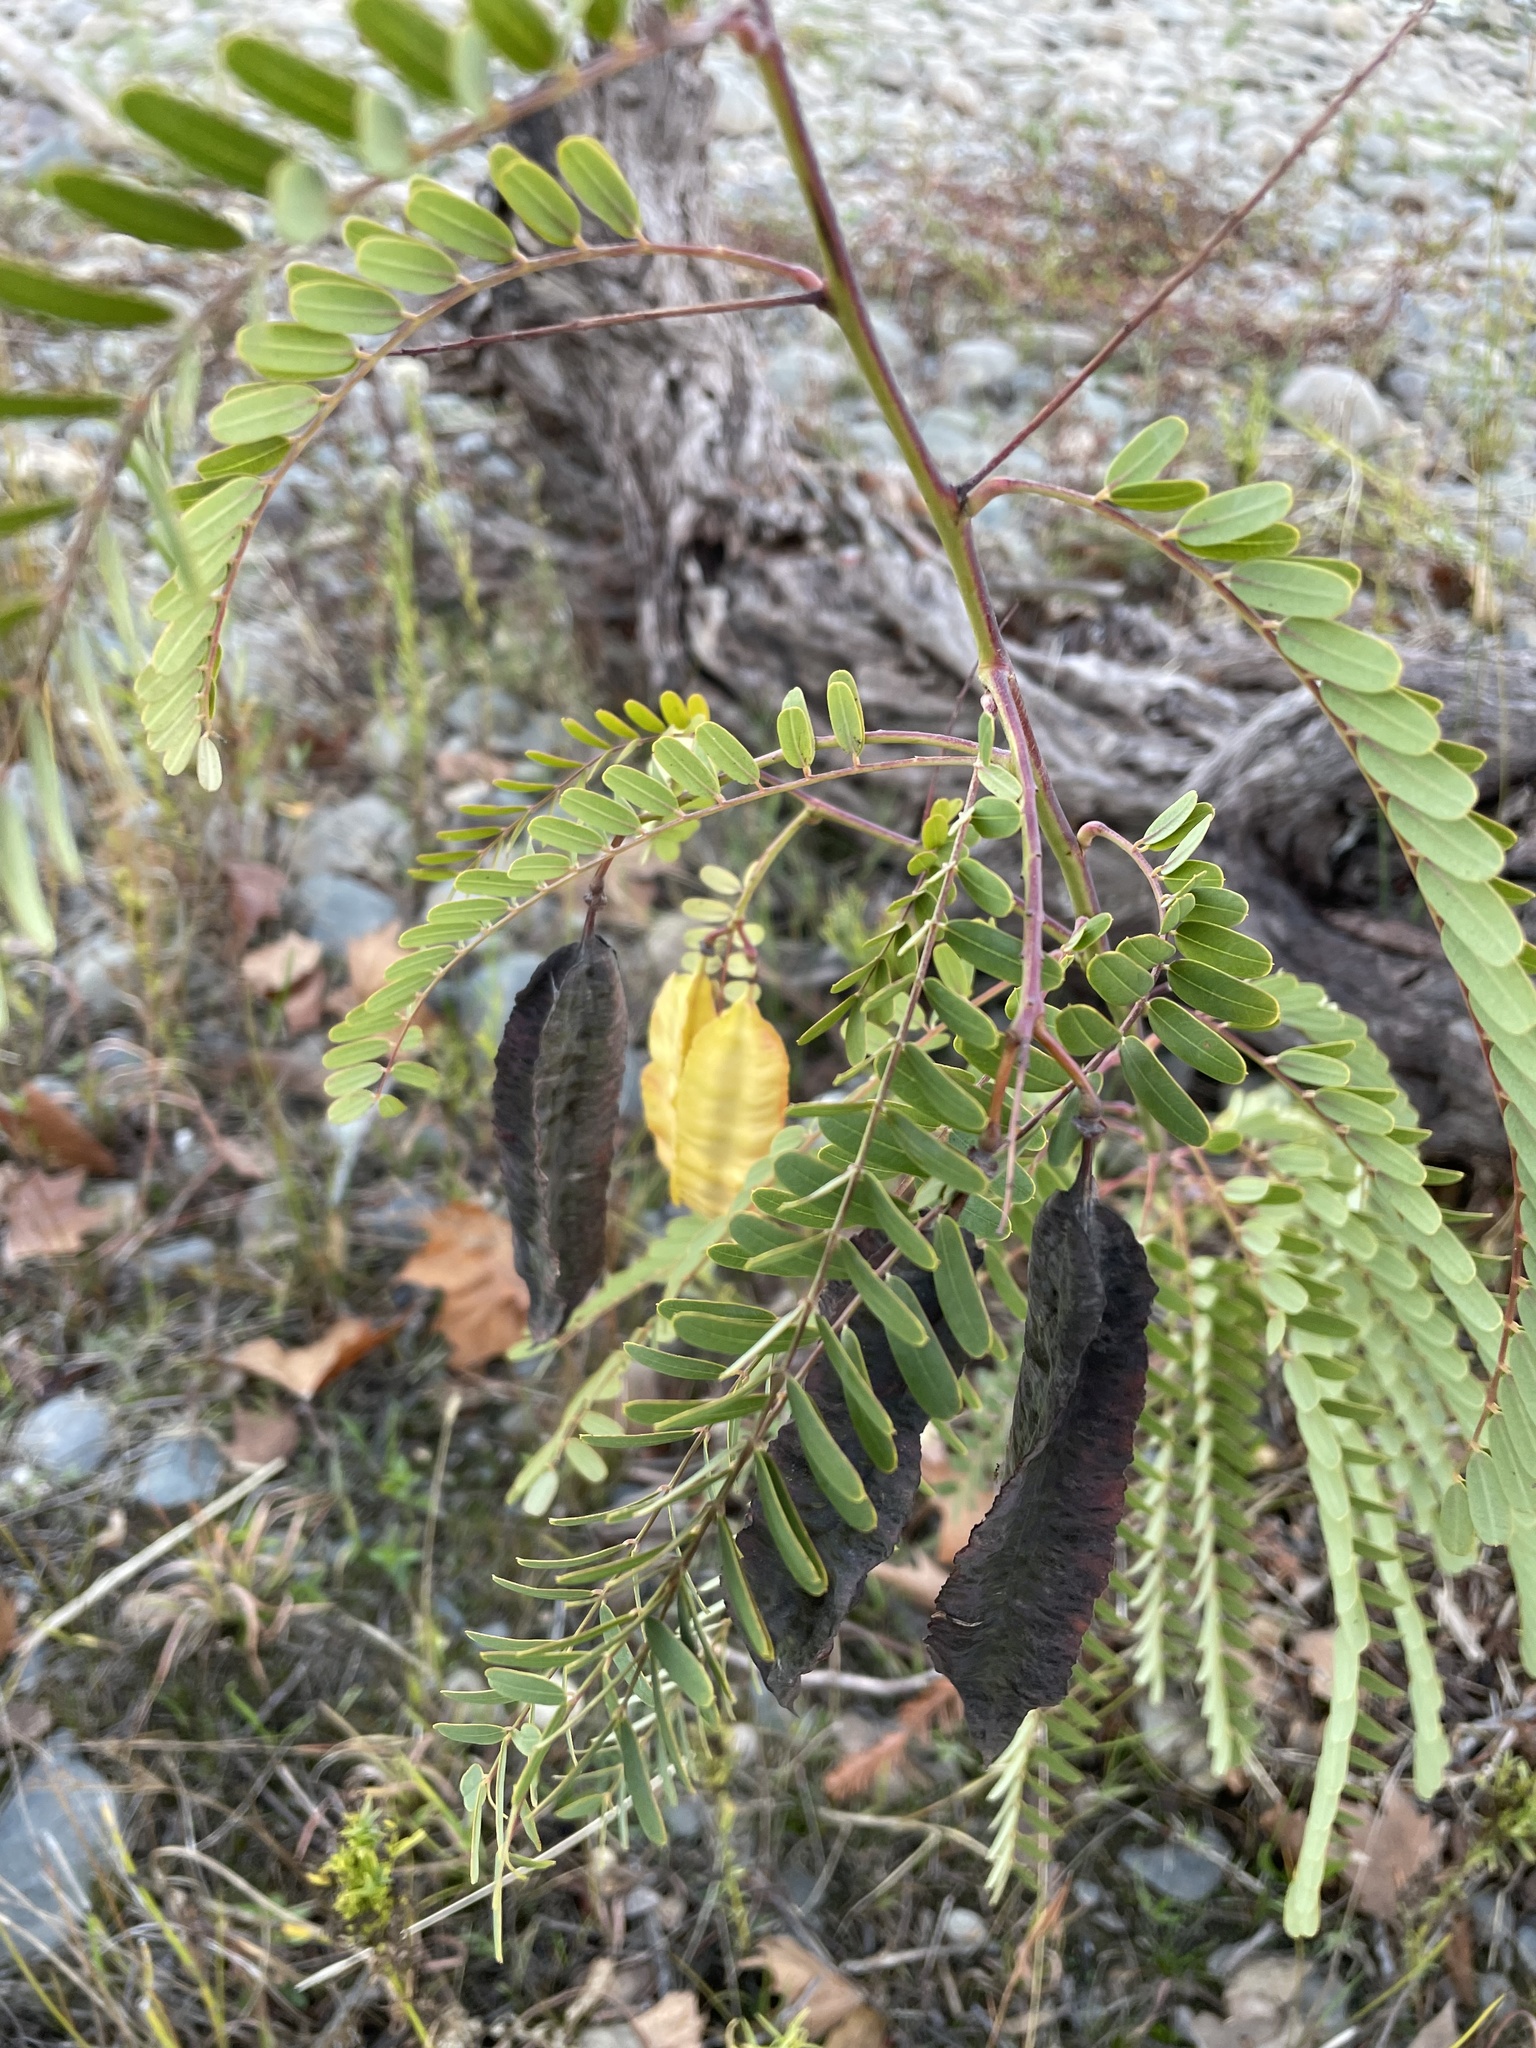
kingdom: Plantae
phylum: Tracheophyta
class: Magnoliopsida
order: Fabales
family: Fabaceae
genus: Sesbania
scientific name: Sesbania punicea
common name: Rattlebox
